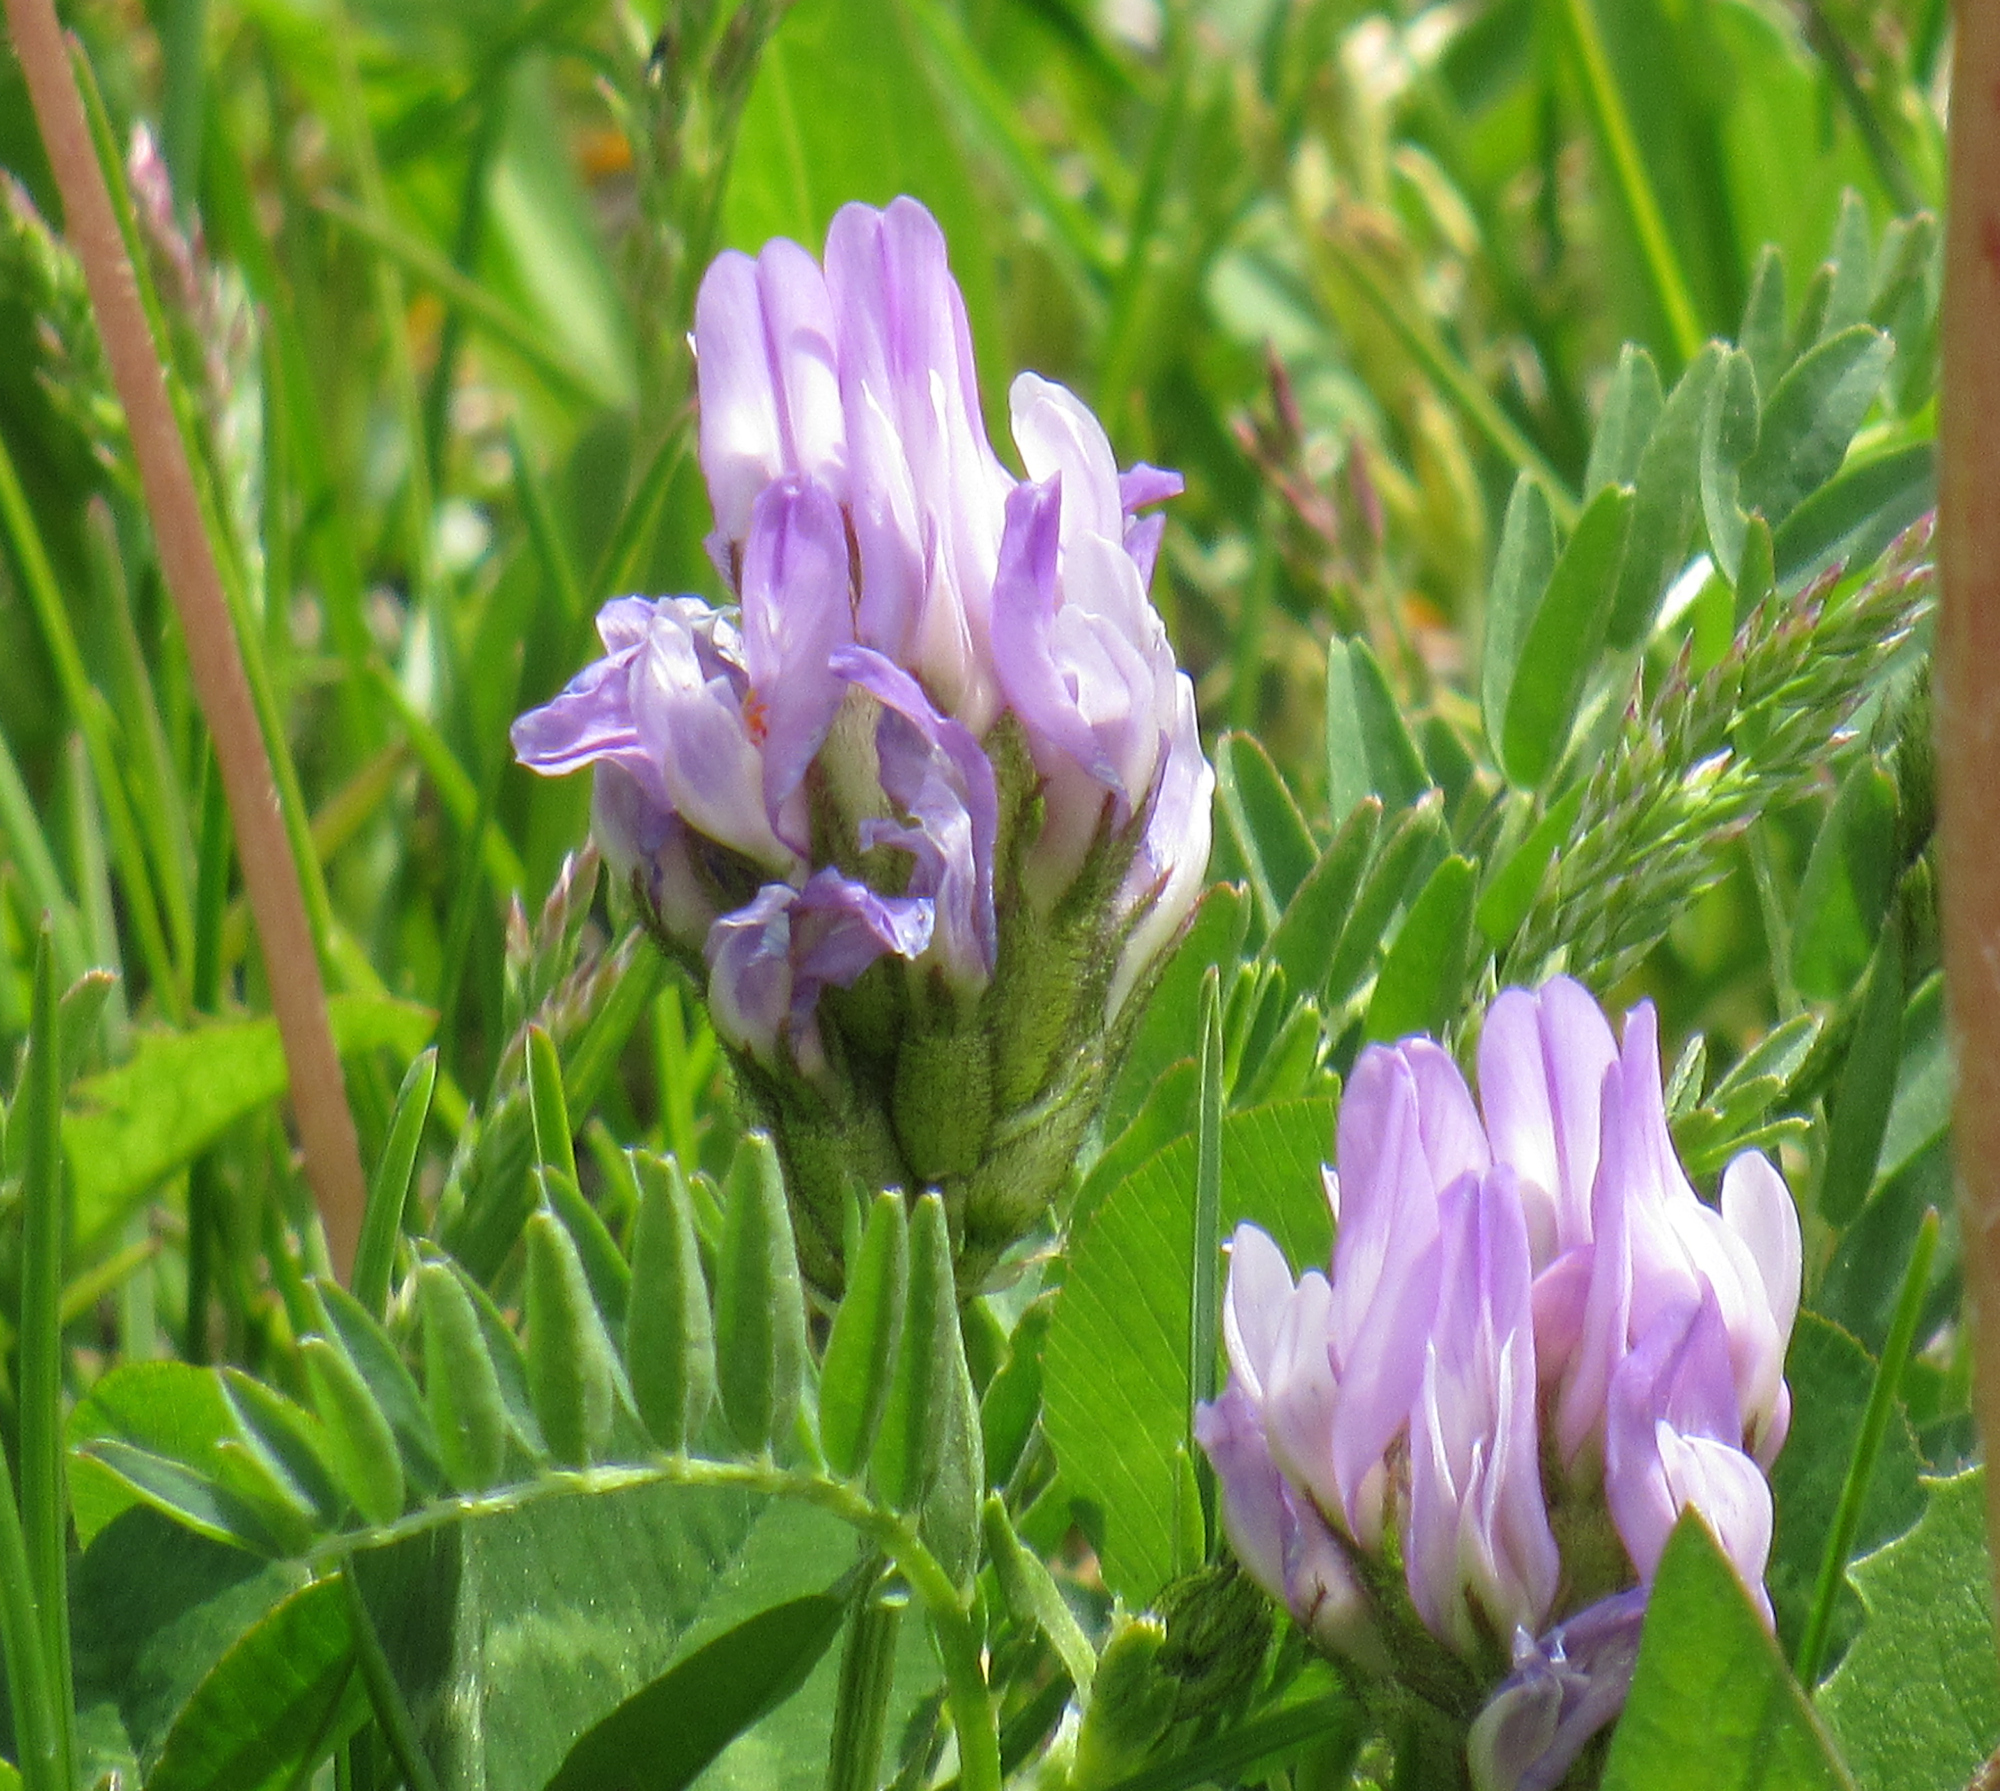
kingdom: Plantae
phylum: Tracheophyta
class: Magnoliopsida
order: Fabales
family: Fabaceae
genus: Astragalus
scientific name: Astragalus agrestis
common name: Field milk-vetch
